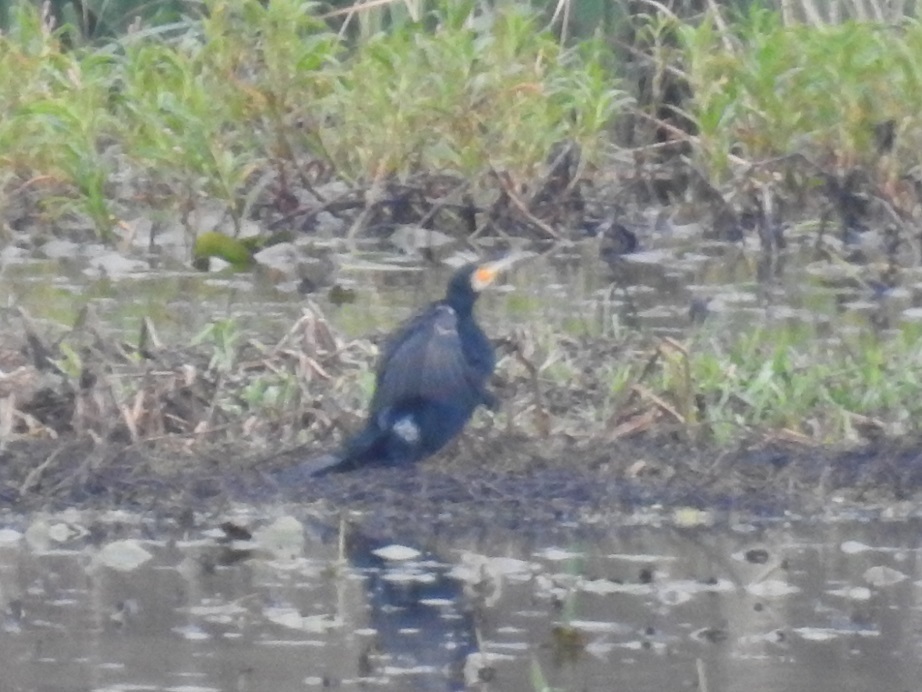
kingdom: Animalia
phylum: Chordata
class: Aves
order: Suliformes
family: Phalacrocoracidae
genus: Phalacrocorax
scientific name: Phalacrocorax carbo
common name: Great cormorant
